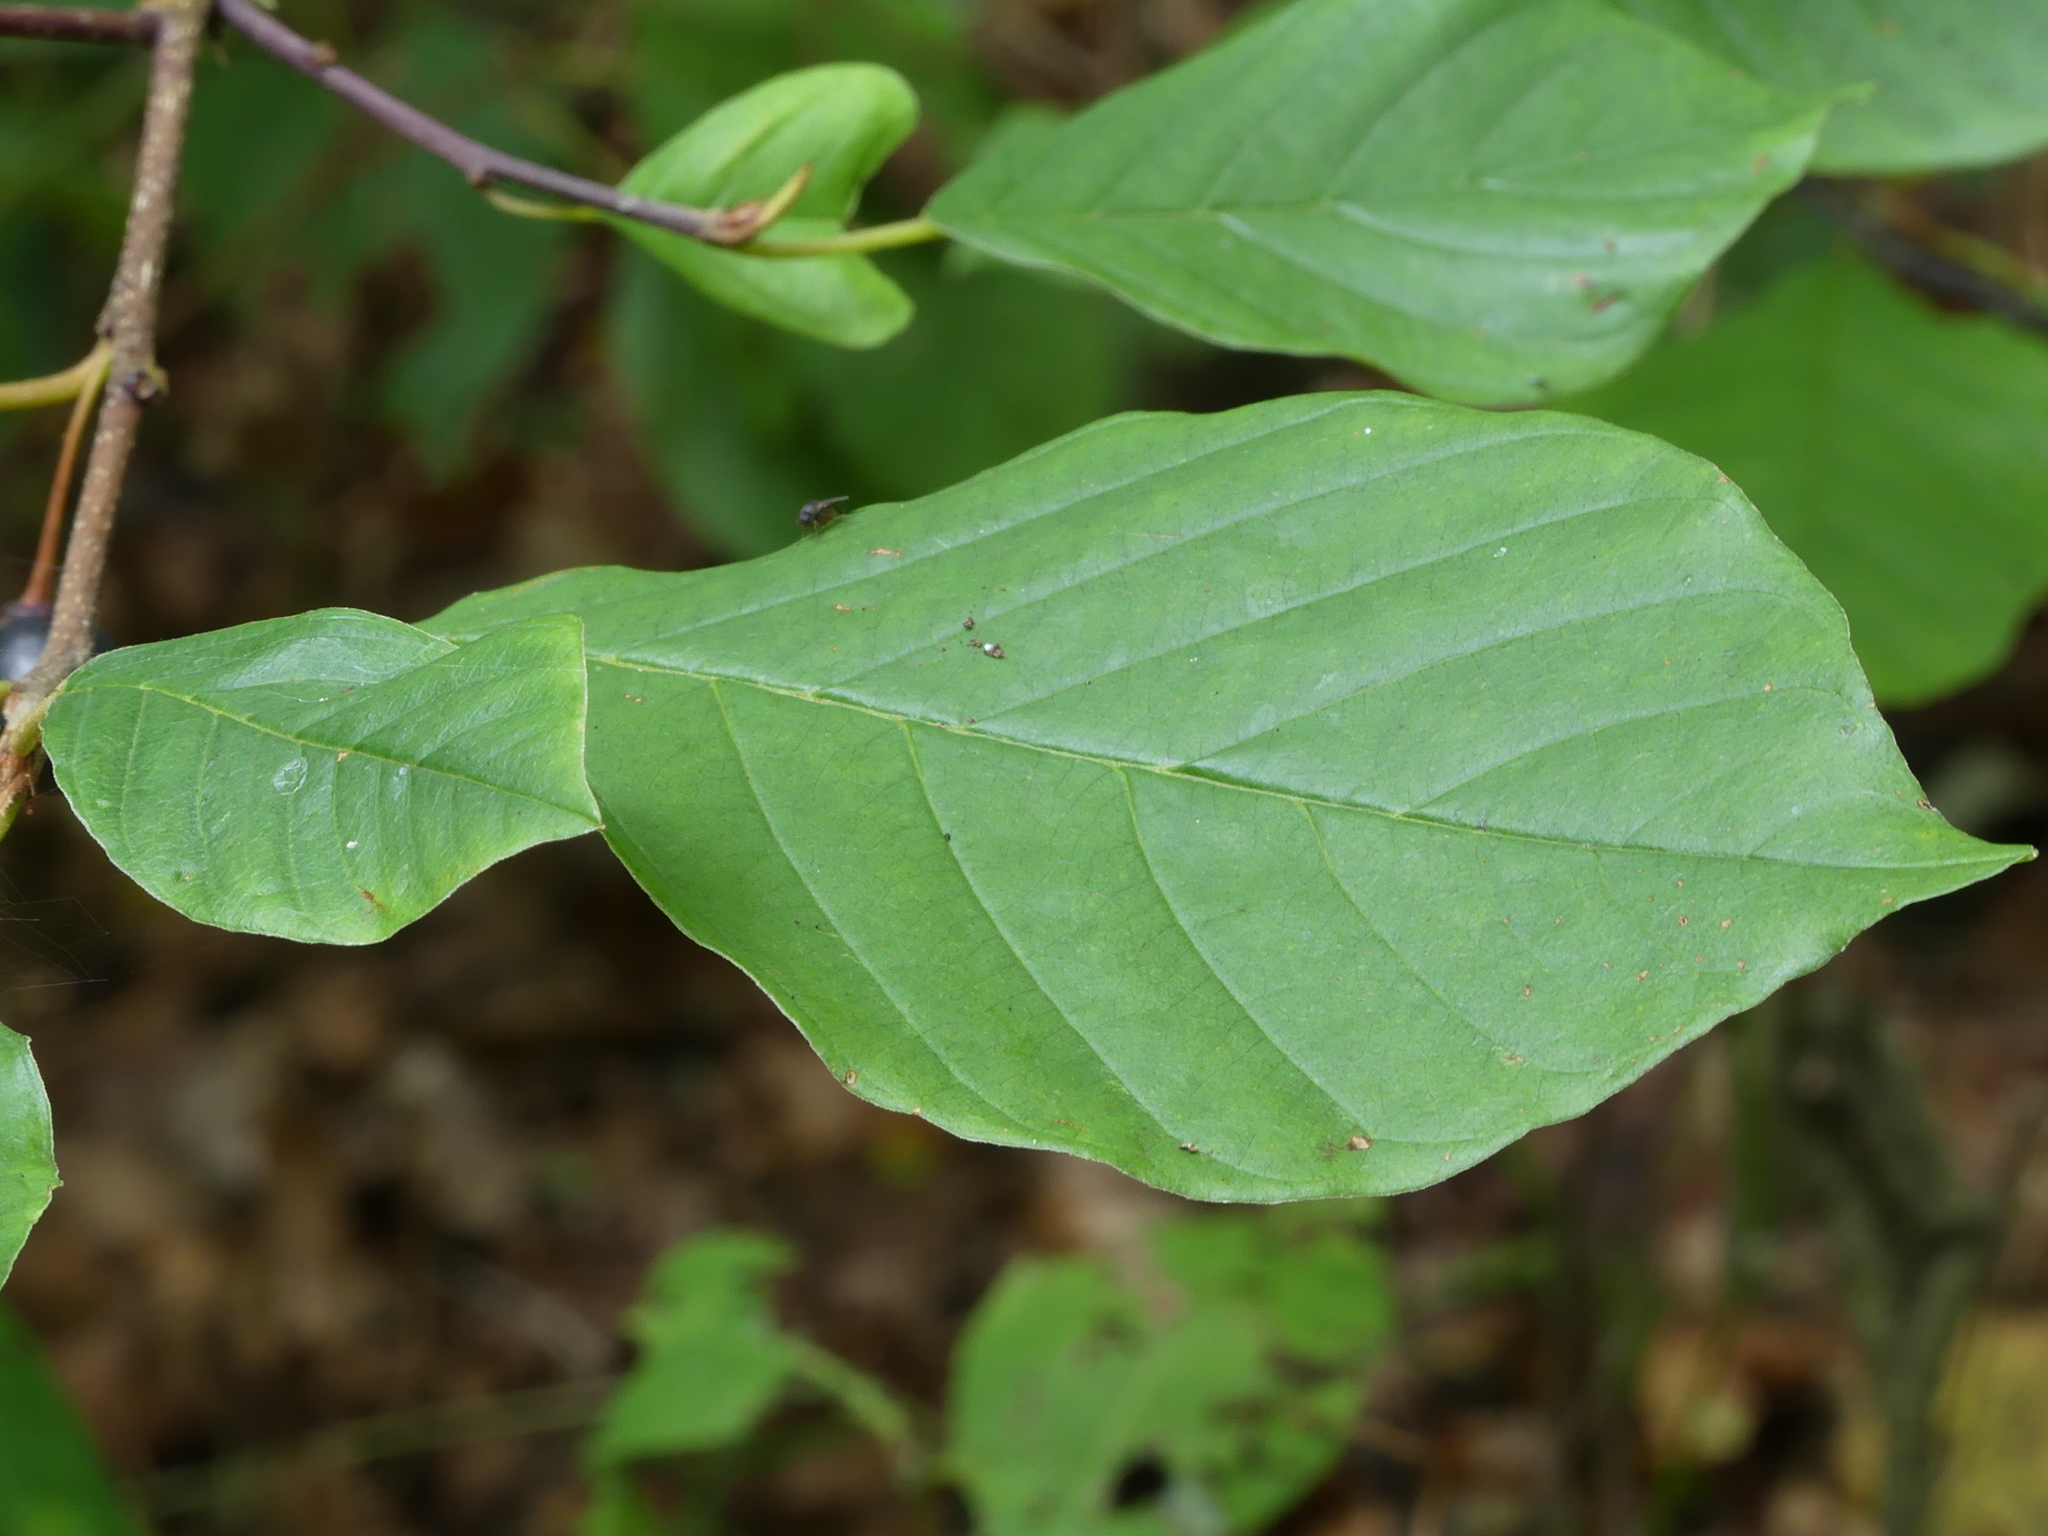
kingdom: Plantae
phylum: Tracheophyta
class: Magnoliopsida
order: Rosales
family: Rhamnaceae
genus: Frangula
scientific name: Frangula alnus
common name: Alder buckthorn
